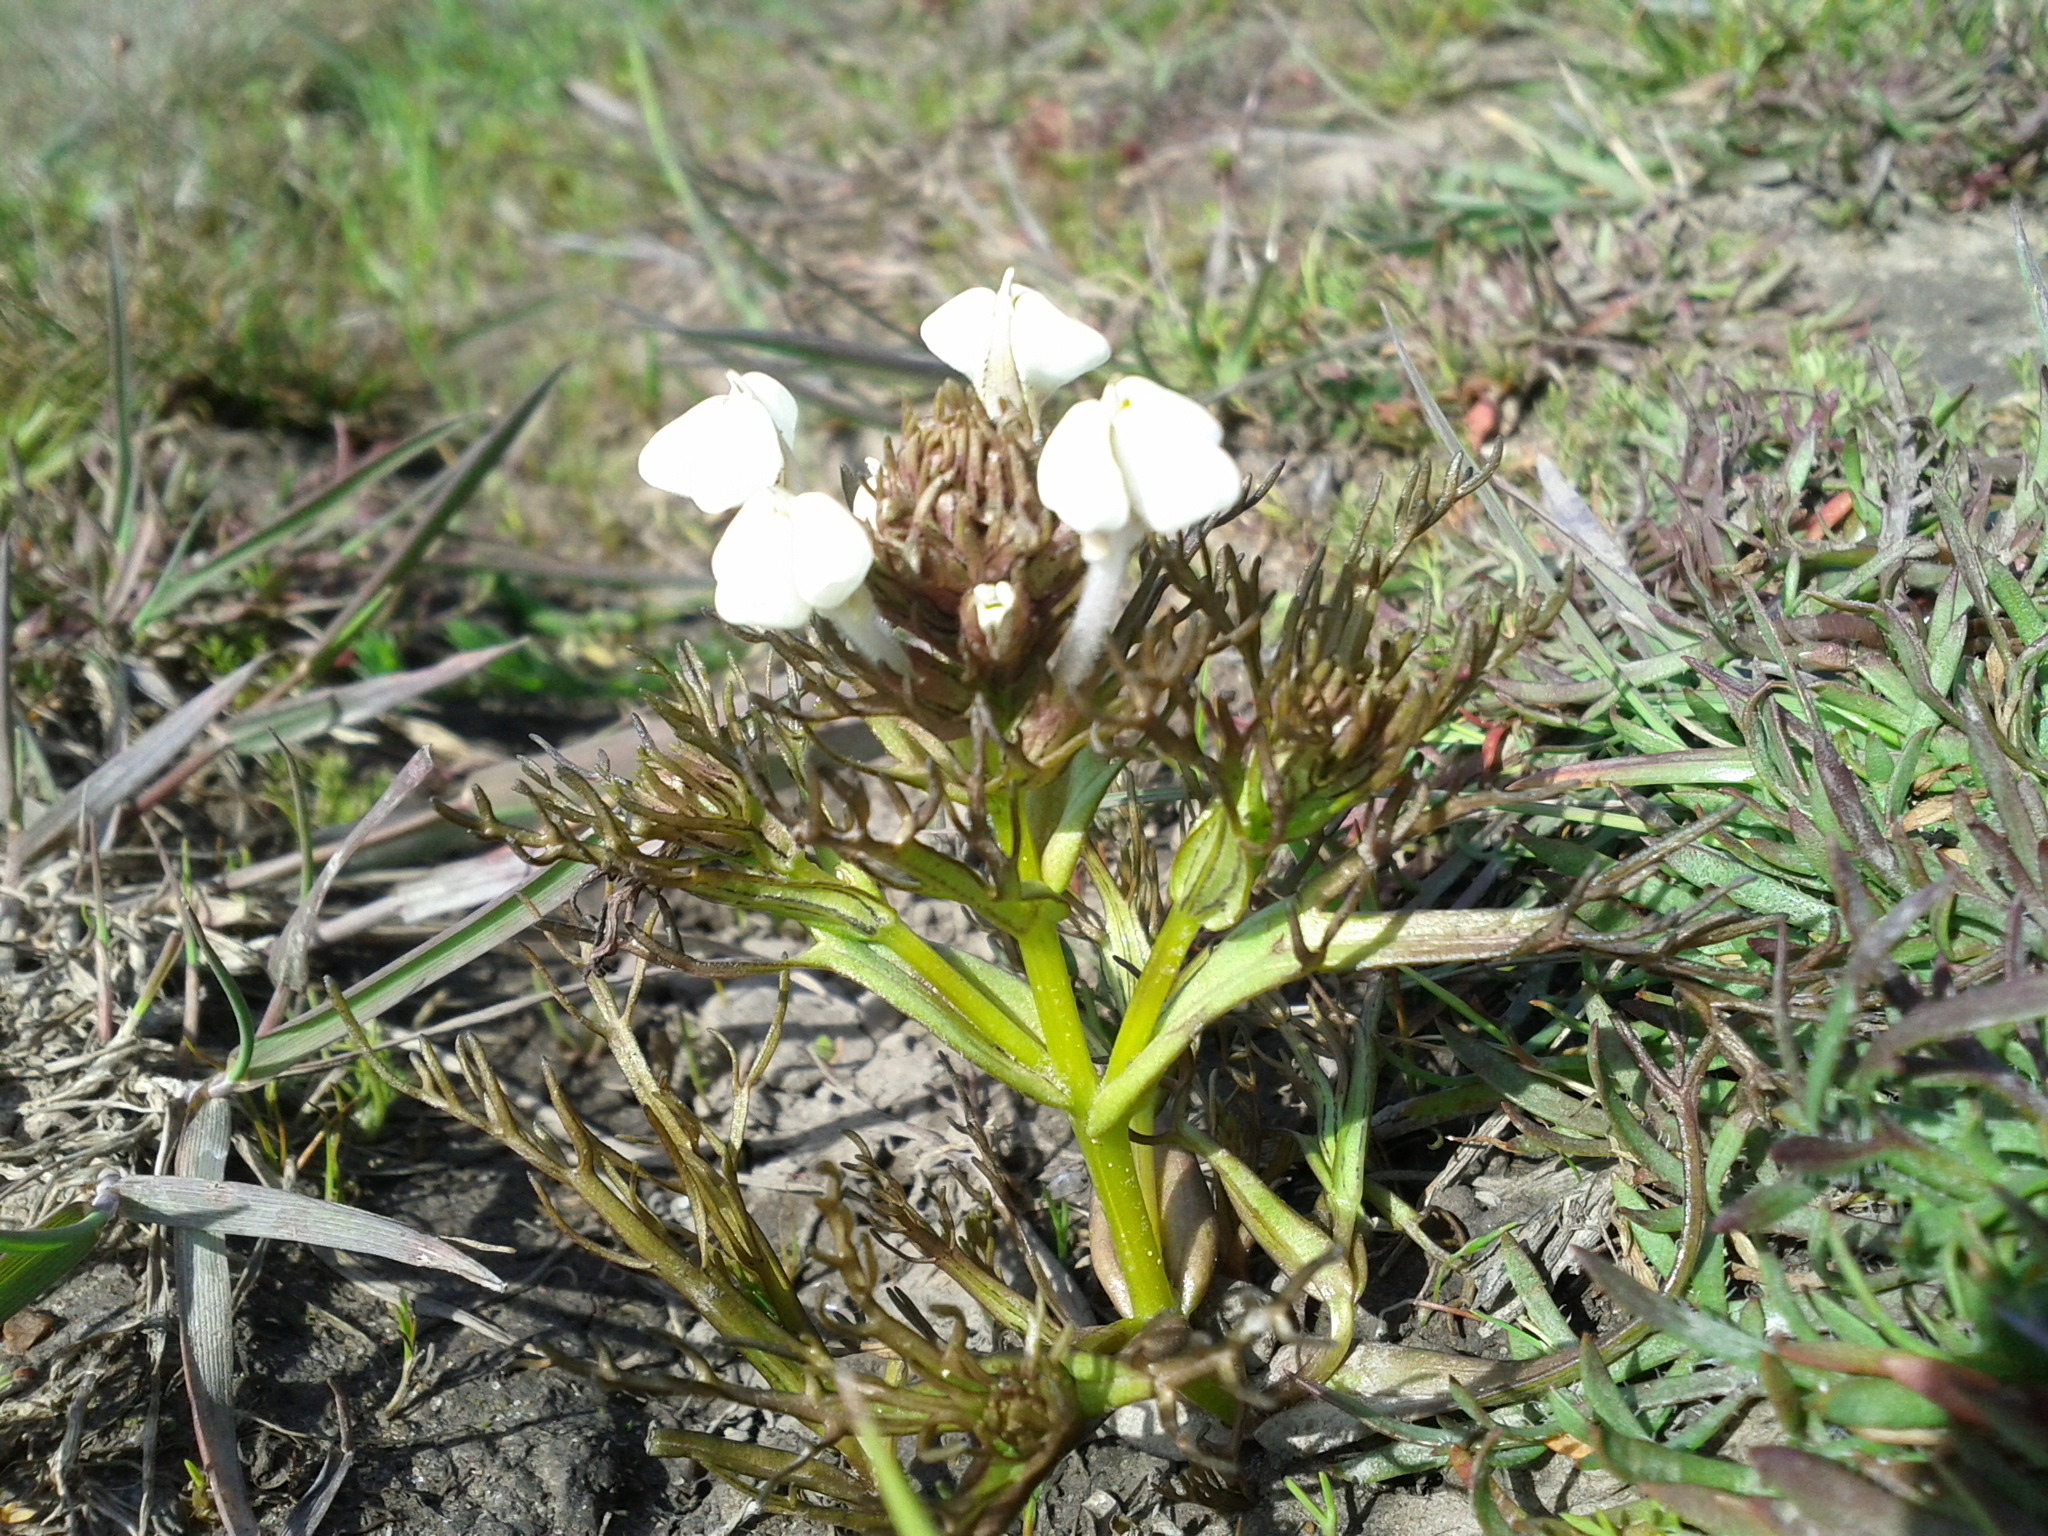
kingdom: Plantae
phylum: Tracheophyta
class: Magnoliopsida
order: Lamiales
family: Orobanchaceae
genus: Triphysaria
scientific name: Triphysaria versicolor
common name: Bearded false owl-clover
